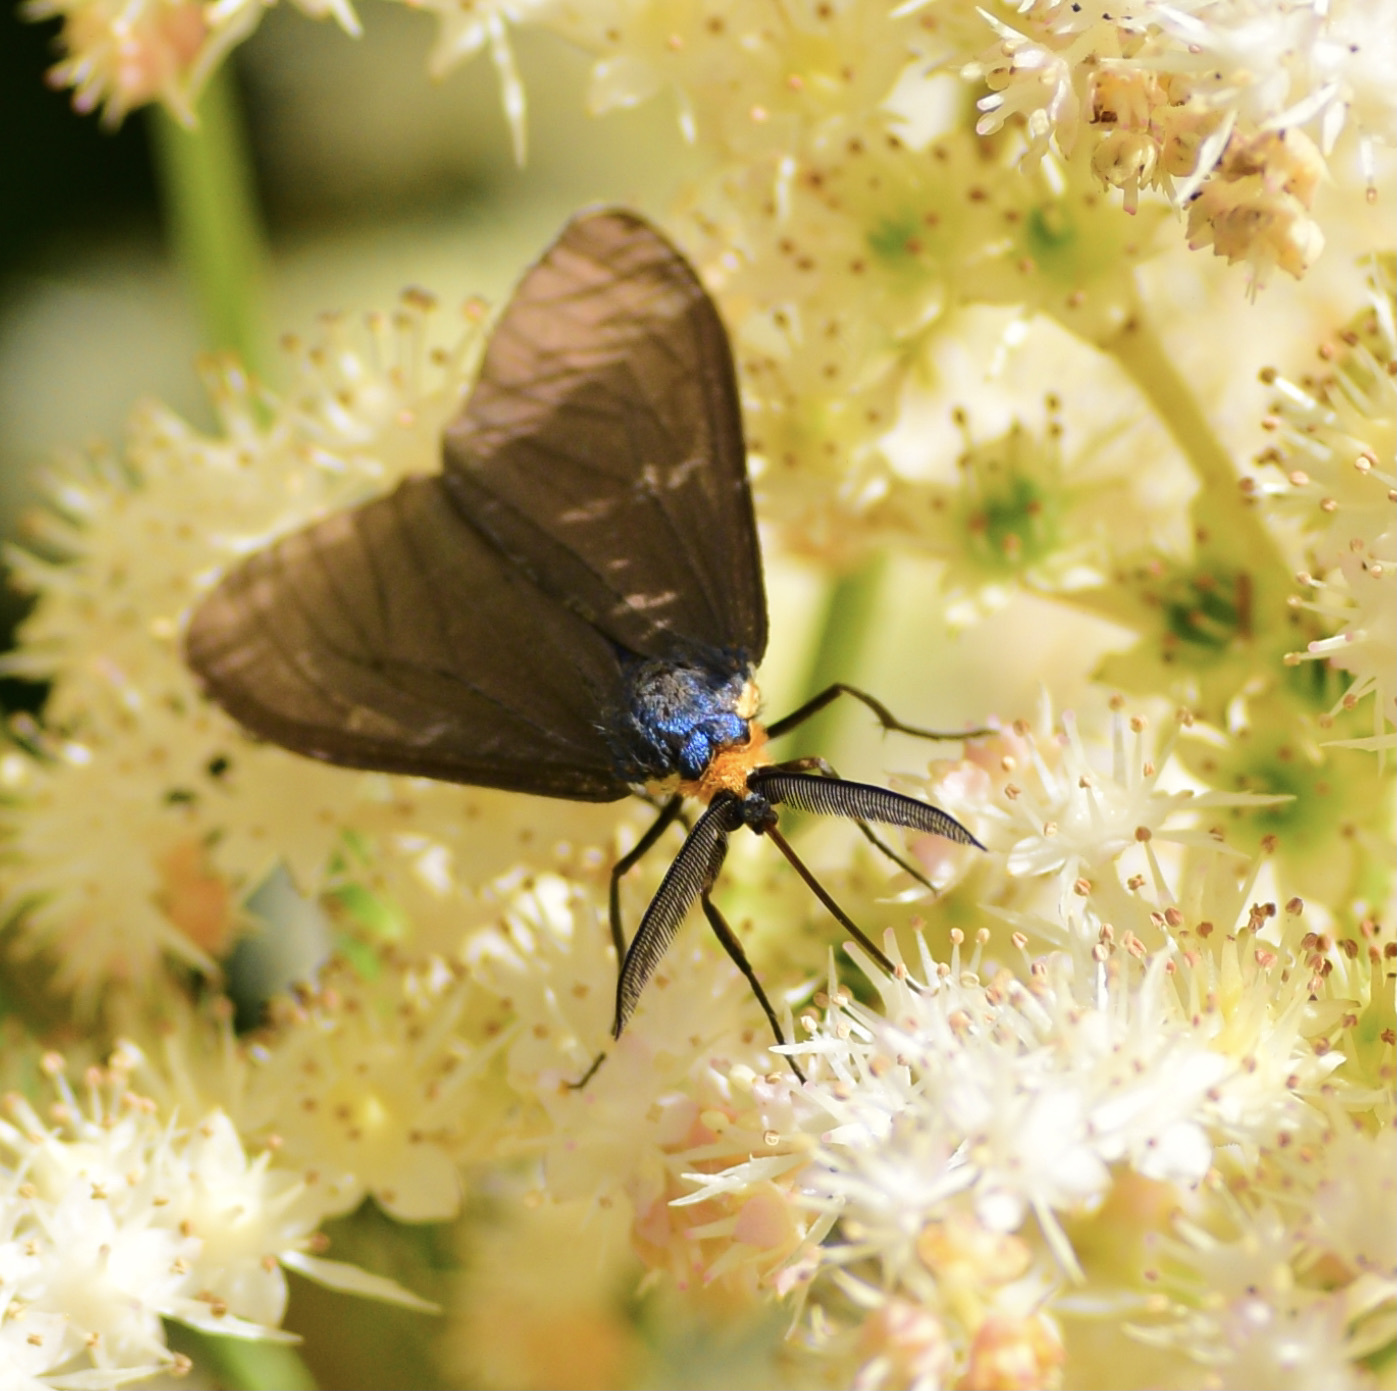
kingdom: Animalia
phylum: Arthropoda
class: Insecta
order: Lepidoptera
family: Erebidae
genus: Ctenucha
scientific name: Ctenucha virginica
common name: Virginia ctenucha moth
